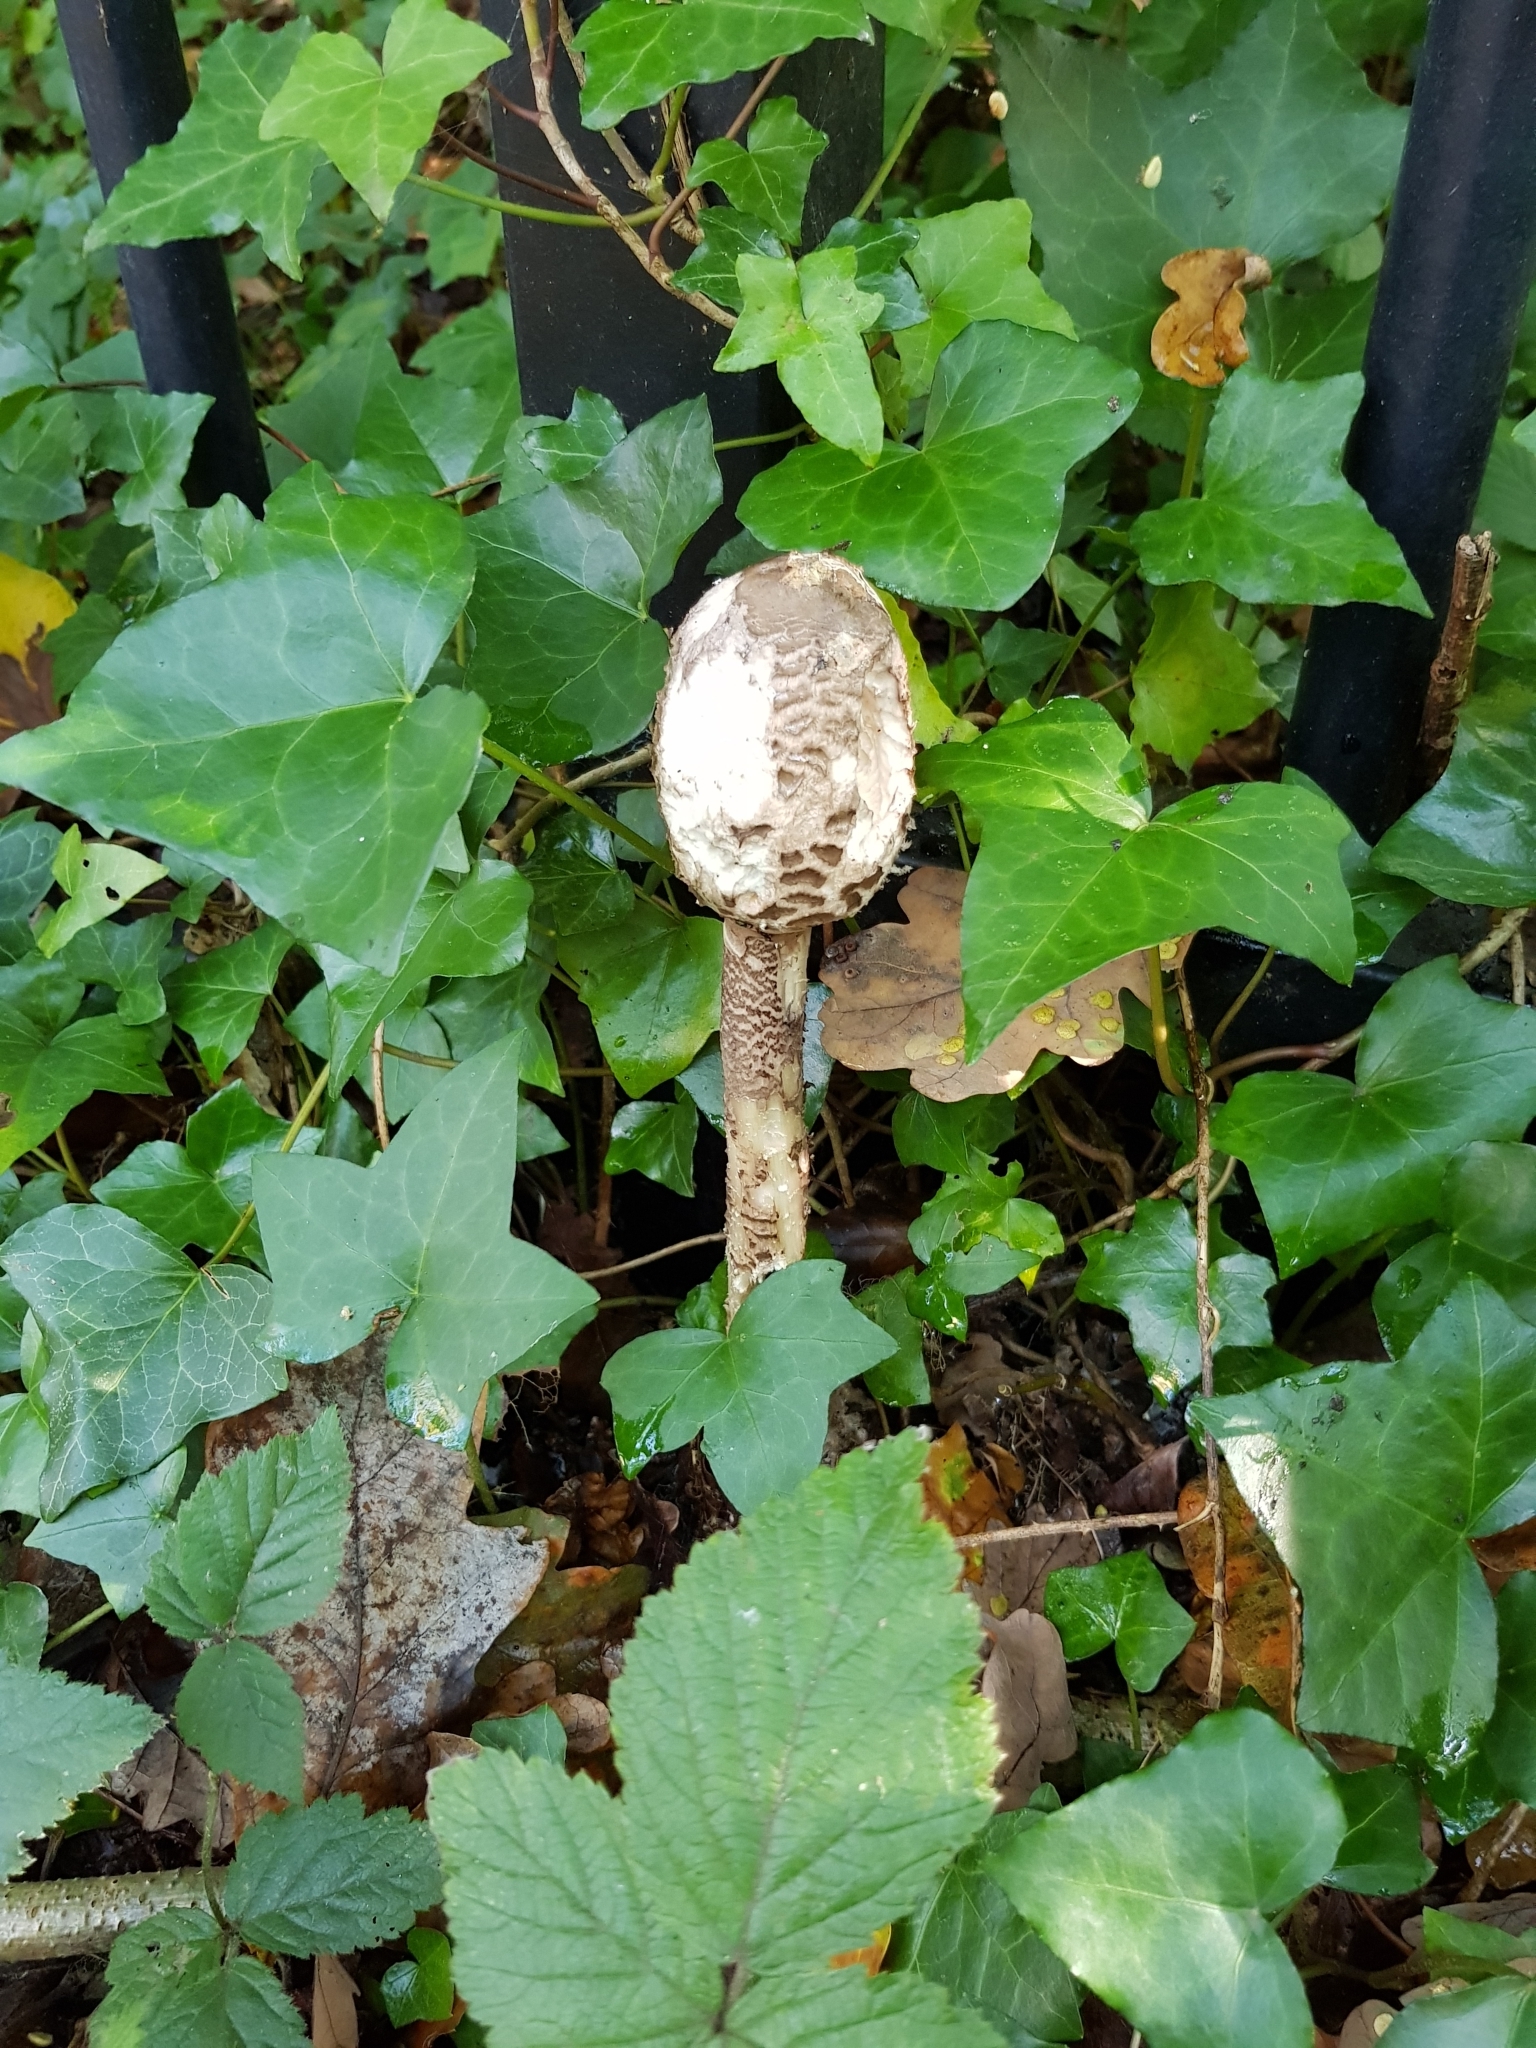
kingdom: Fungi
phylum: Basidiomycota
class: Agaricomycetes
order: Agaricales
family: Agaricaceae
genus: Coprinus
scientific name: Coprinus comatus
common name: Lawyer's wig
